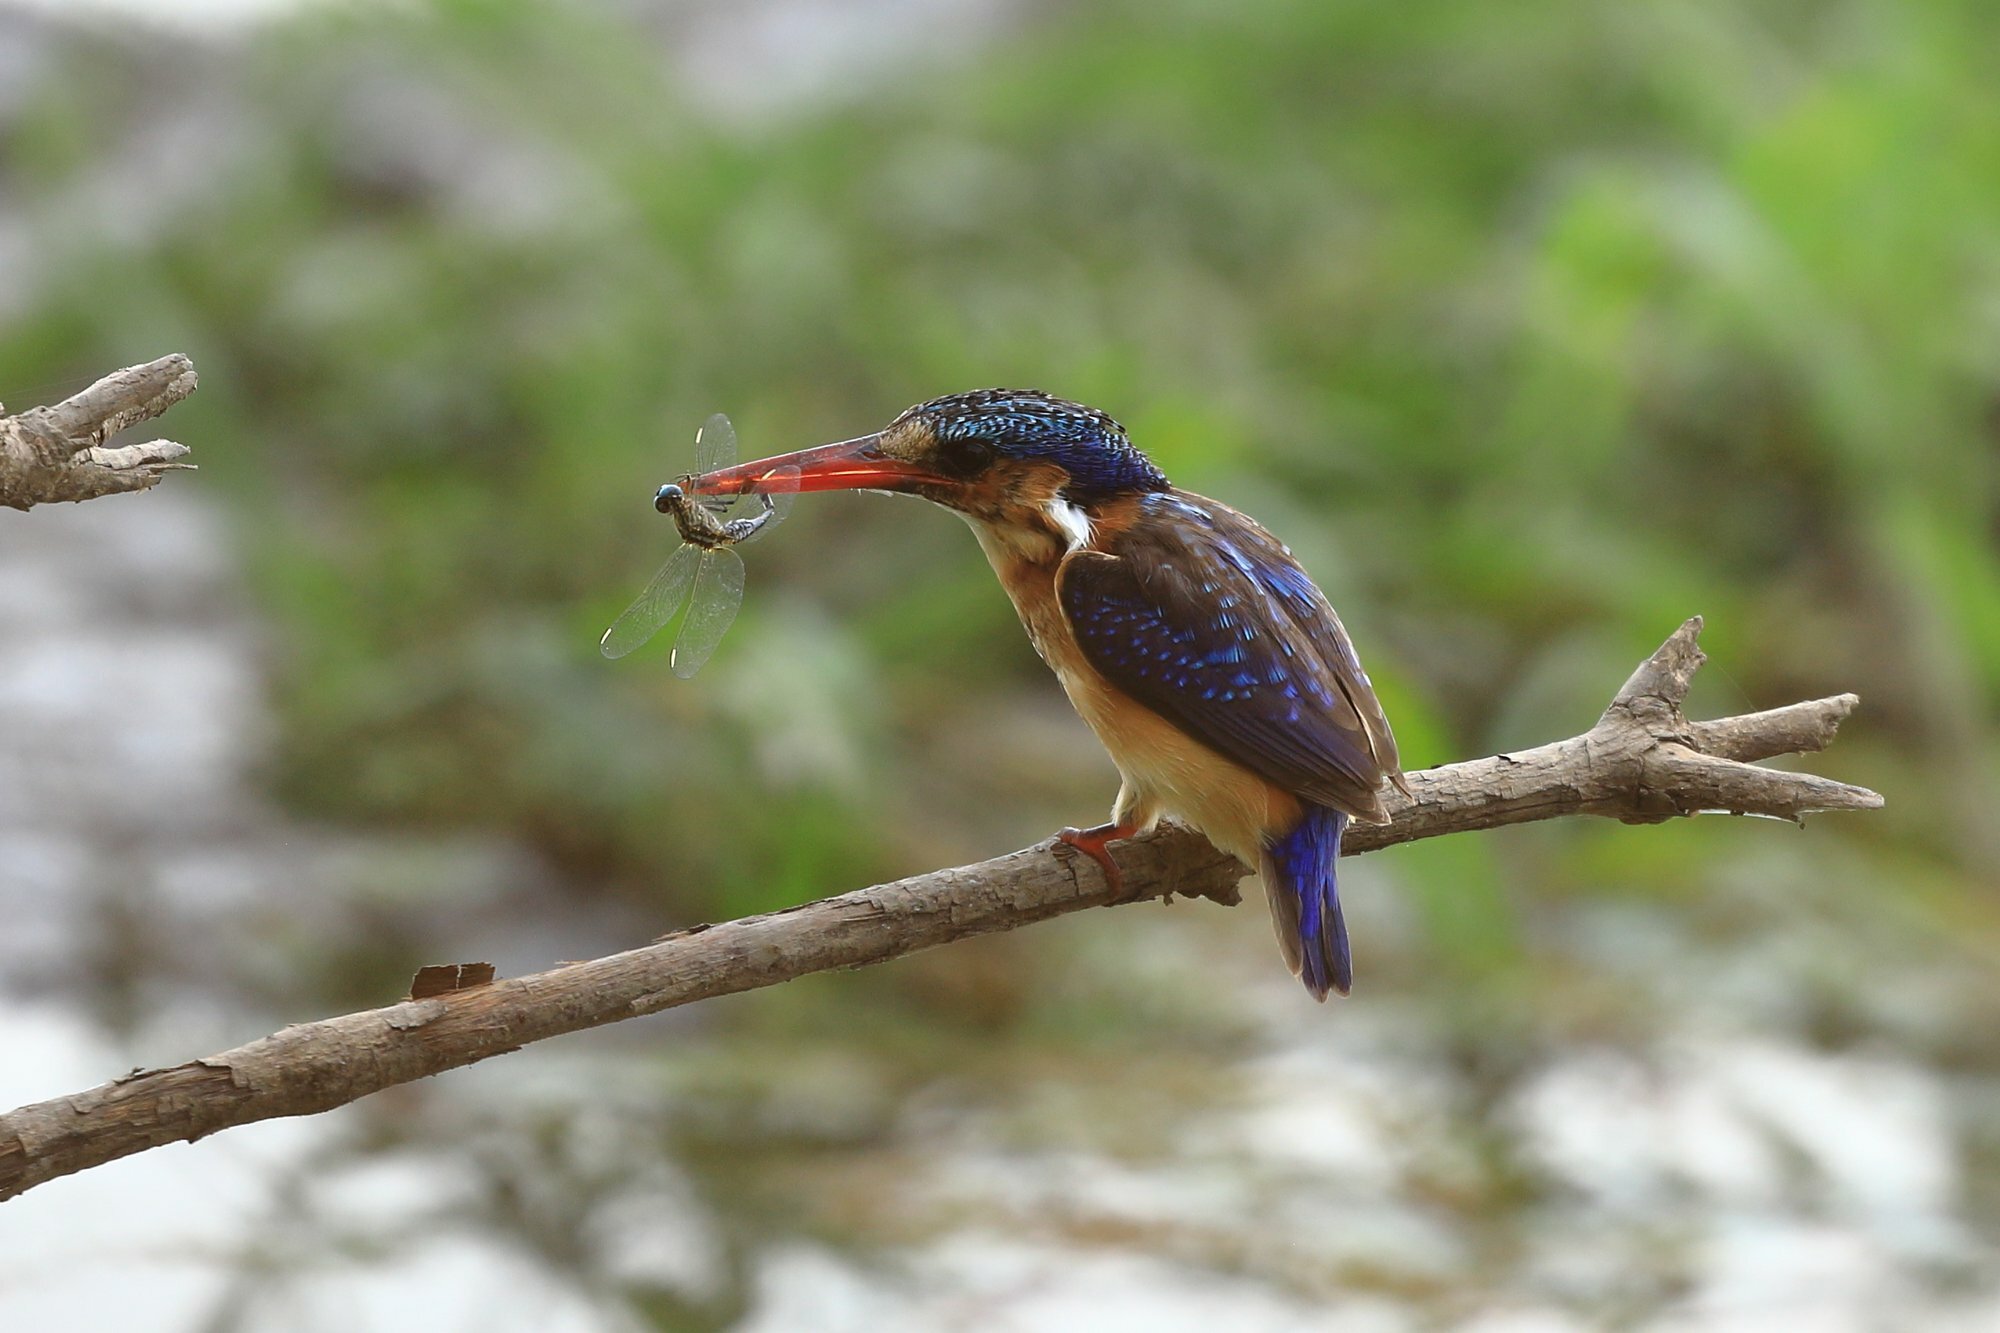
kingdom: Animalia
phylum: Chordata
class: Aves
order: Coraciiformes
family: Alcedinidae
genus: Corythornis
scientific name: Corythornis cristatus
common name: Malachite kingfisher
